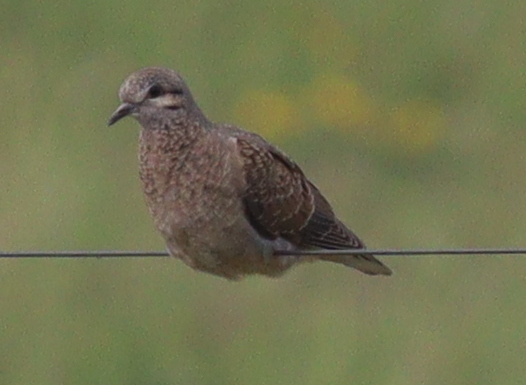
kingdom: Animalia
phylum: Chordata
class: Aves
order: Columbiformes
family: Columbidae
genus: Zenaida
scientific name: Zenaida auriculata
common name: Eared dove
